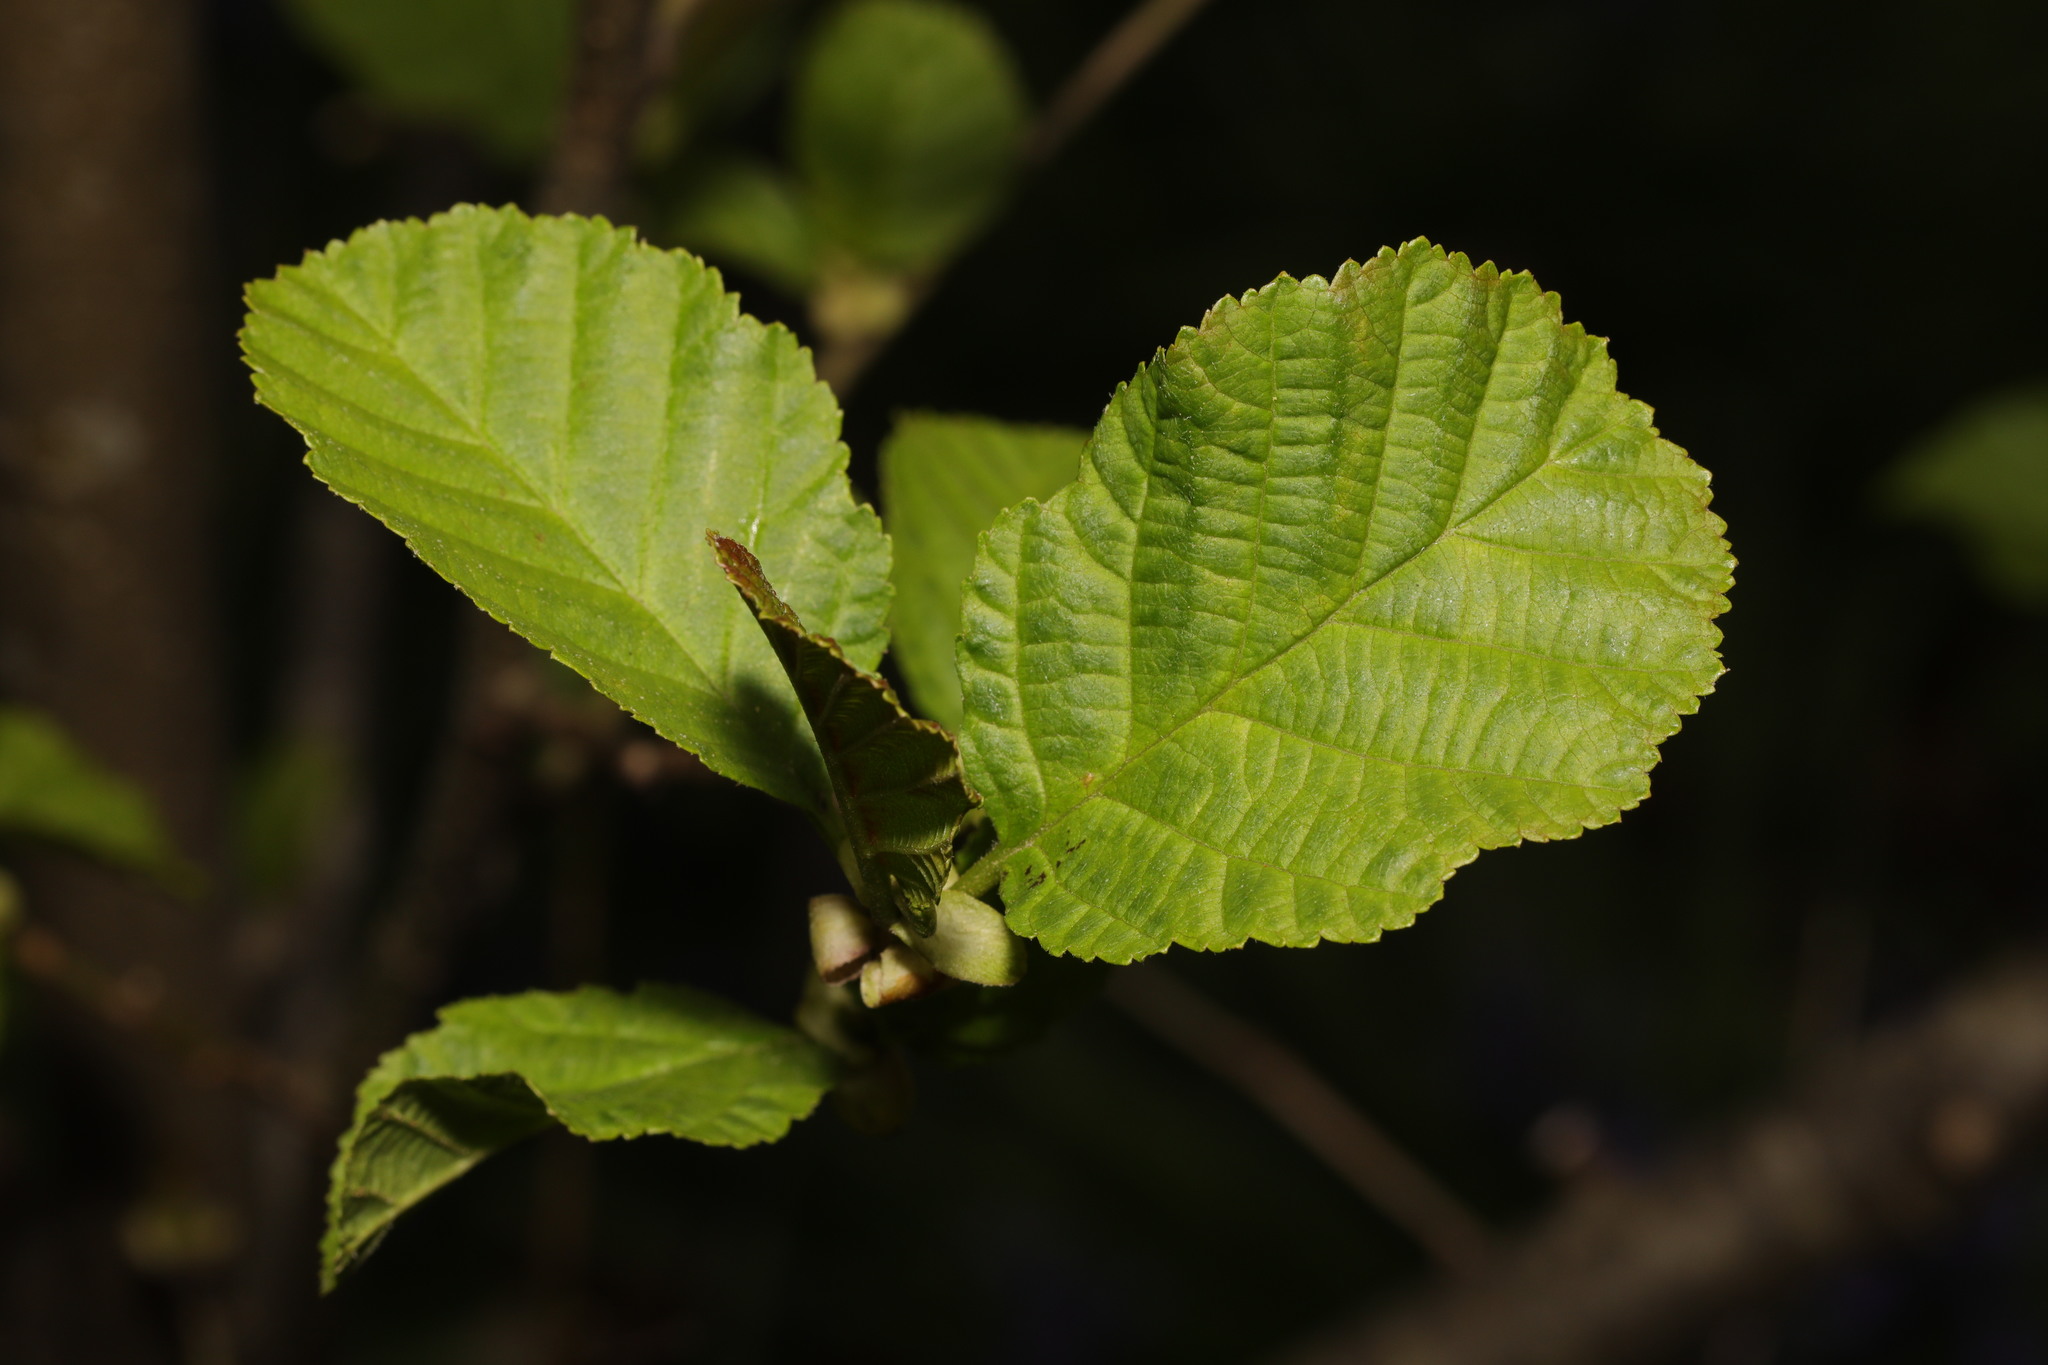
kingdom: Plantae
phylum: Tracheophyta
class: Magnoliopsida
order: Fagales
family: Betulaceae
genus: Alnus
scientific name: Alnus glutinosa
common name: Black alder
